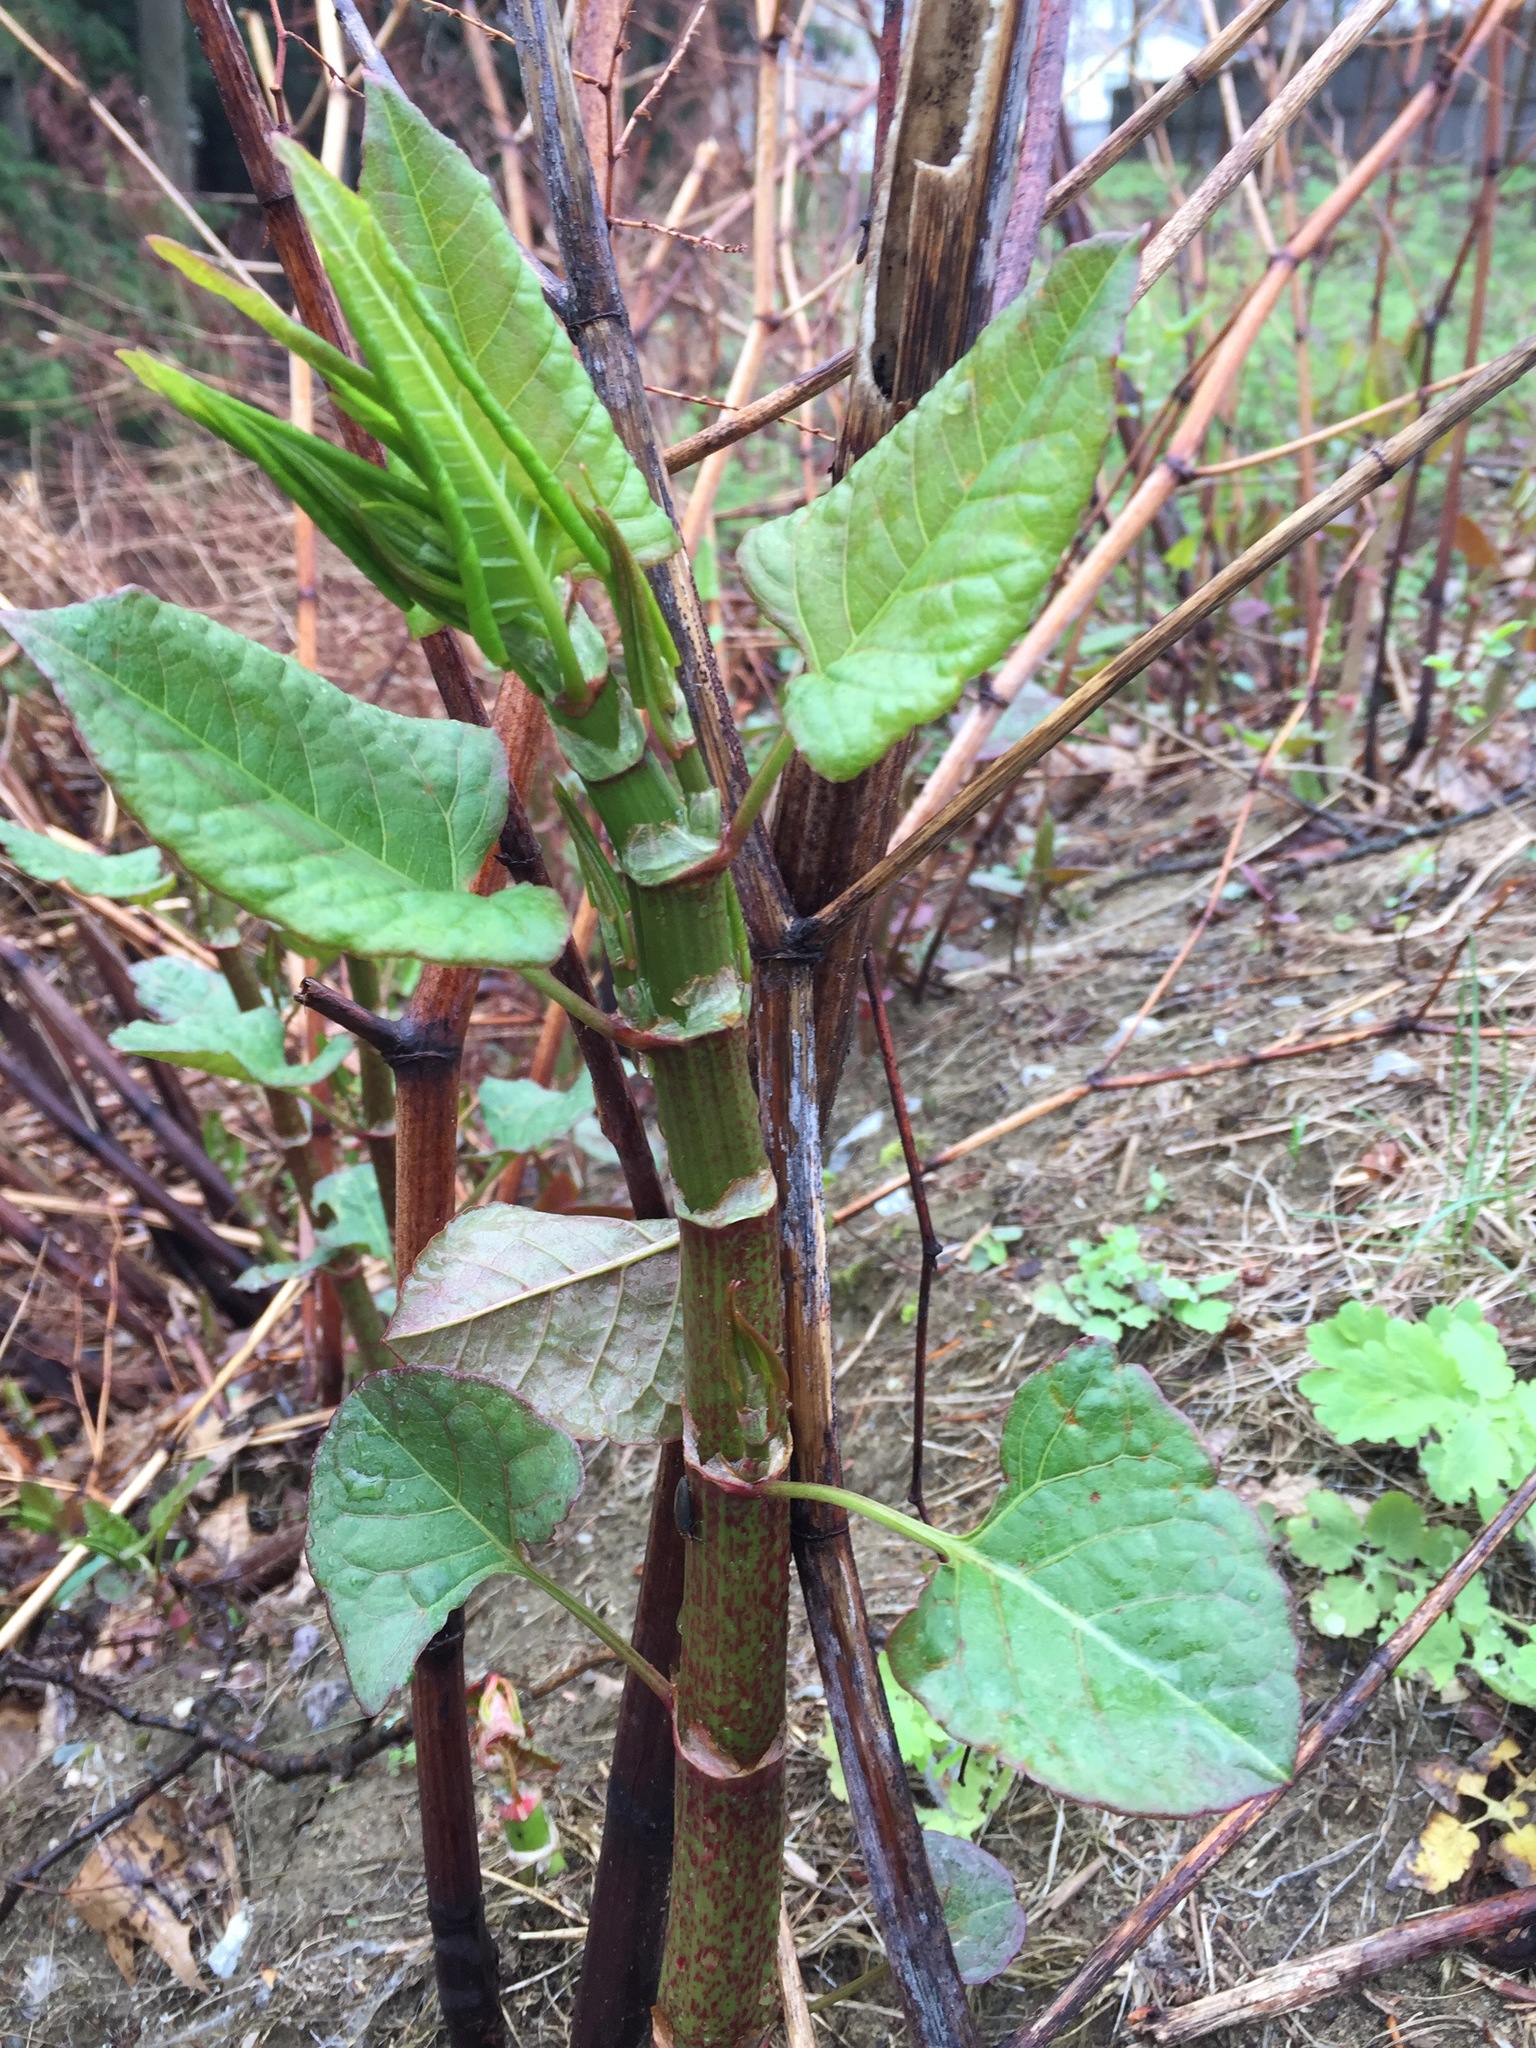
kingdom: Plantae
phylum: Tracheophyta
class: Magnoliopsida
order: Caryophyllales
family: Polygonaceae
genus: Reynoutria
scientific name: Reynoutria japonica
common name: Japanese knotweed
